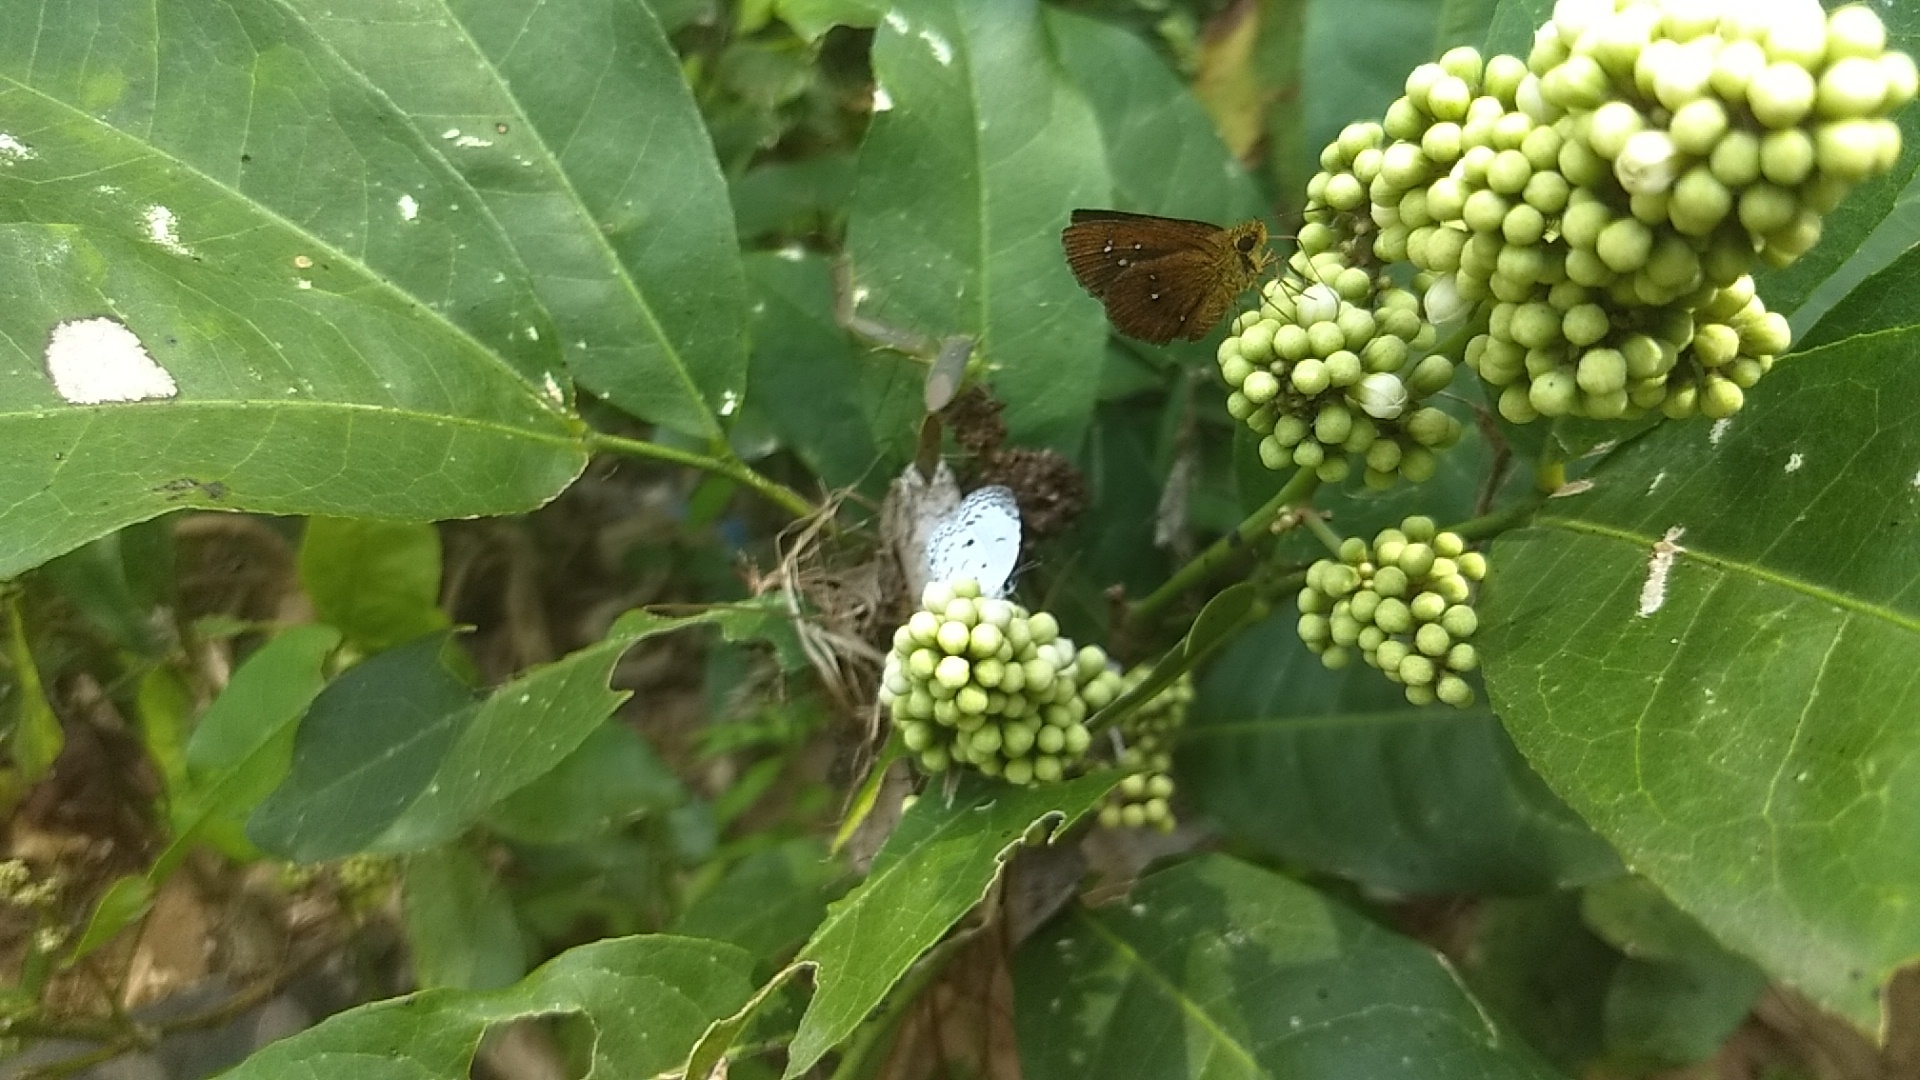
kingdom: Animalia
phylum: Arthropoda
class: Insecta
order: Lepidoptera
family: Hesperiidae
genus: Iambrix
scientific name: Iambrix salsala
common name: Chestnut bob
